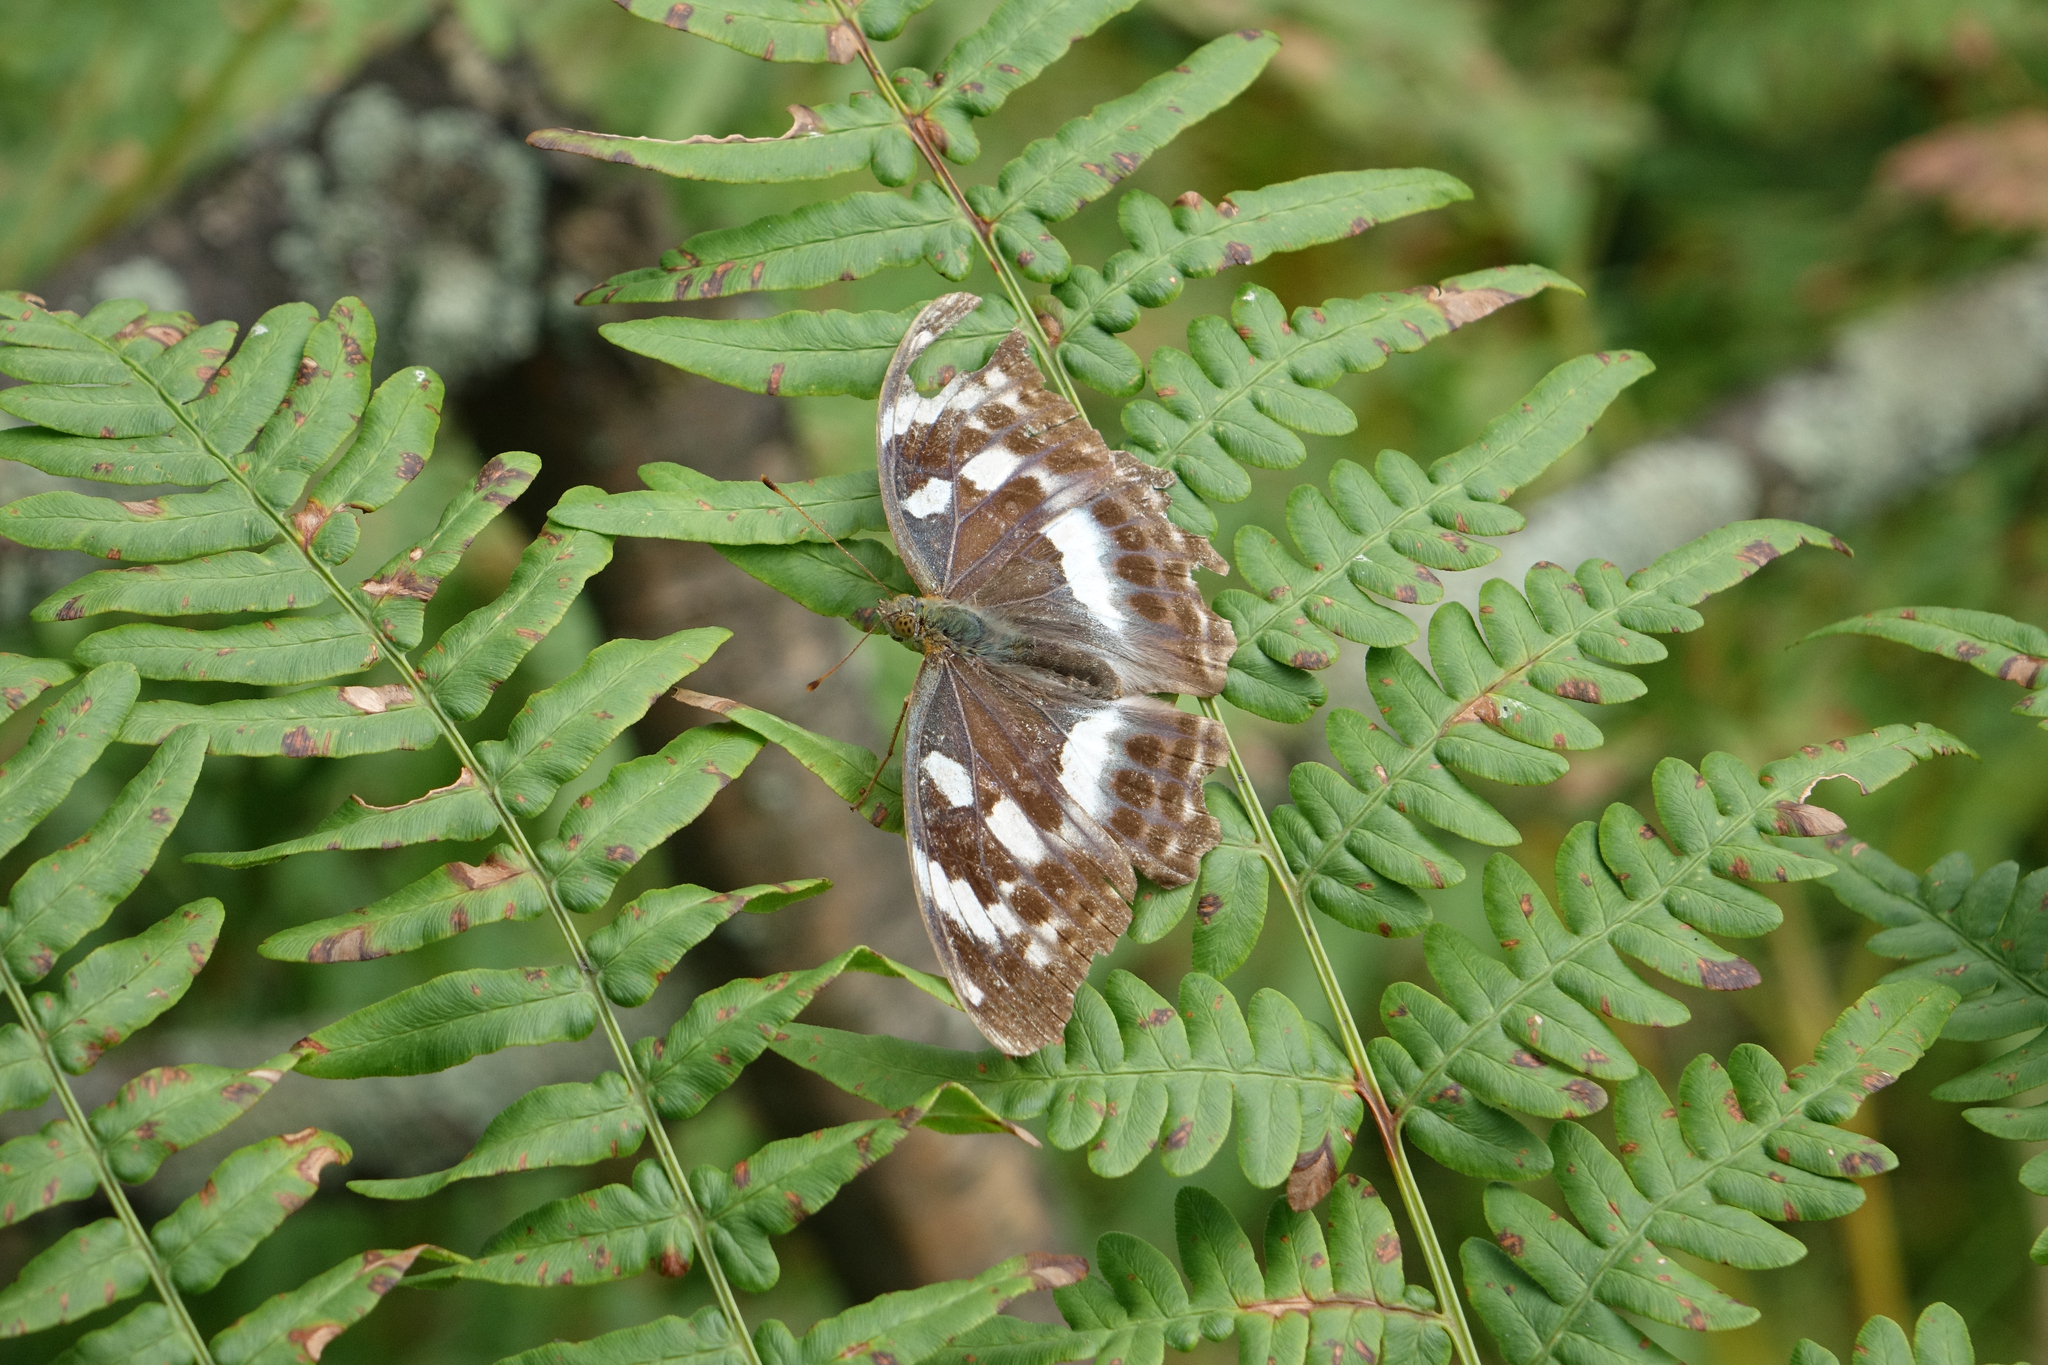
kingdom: Plantae
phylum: Tracheophyta
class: Polypodiopsida
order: Polypodiales
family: Dennstaedtiaceae
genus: Pteridium
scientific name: Pteridium aquilinum
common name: Bracken
